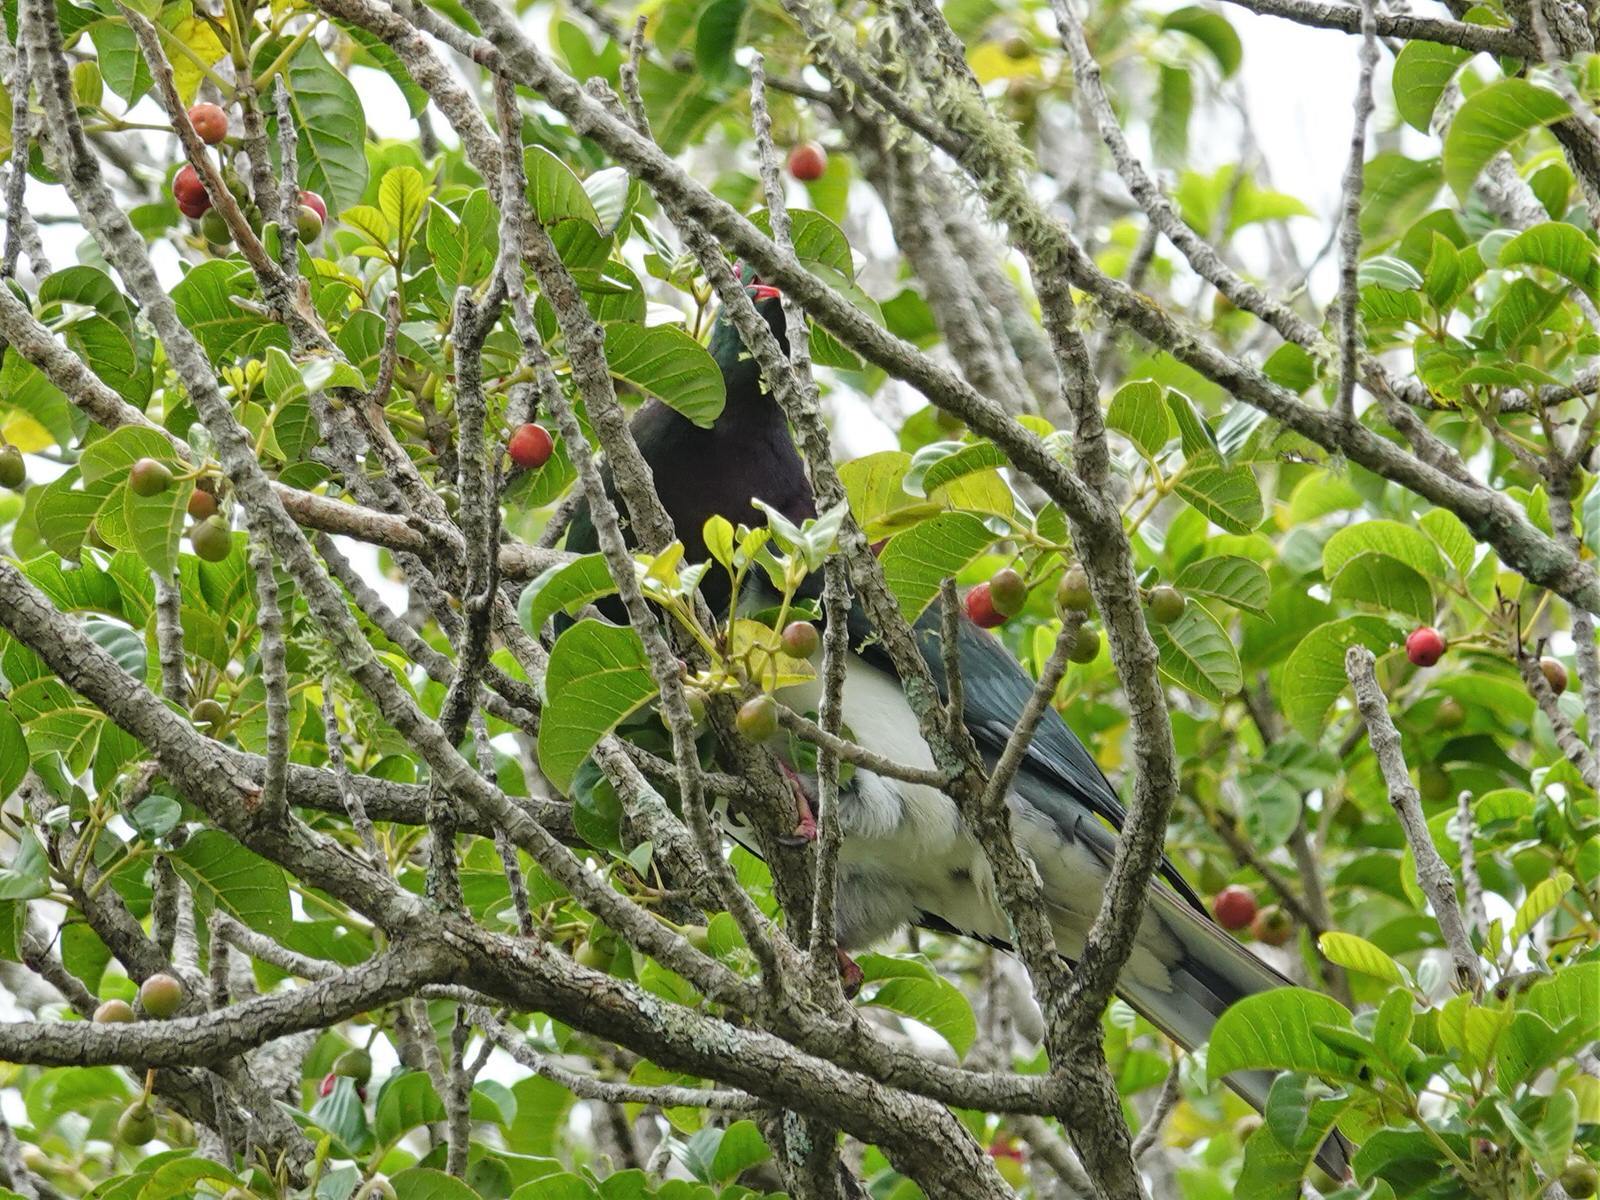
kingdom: Animalia
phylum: Chordata
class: Aves
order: Columbiformes
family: Columbidae
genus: Hemiphaga
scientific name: Hemiphaga novaeseelandiae
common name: New zealand pigeon
